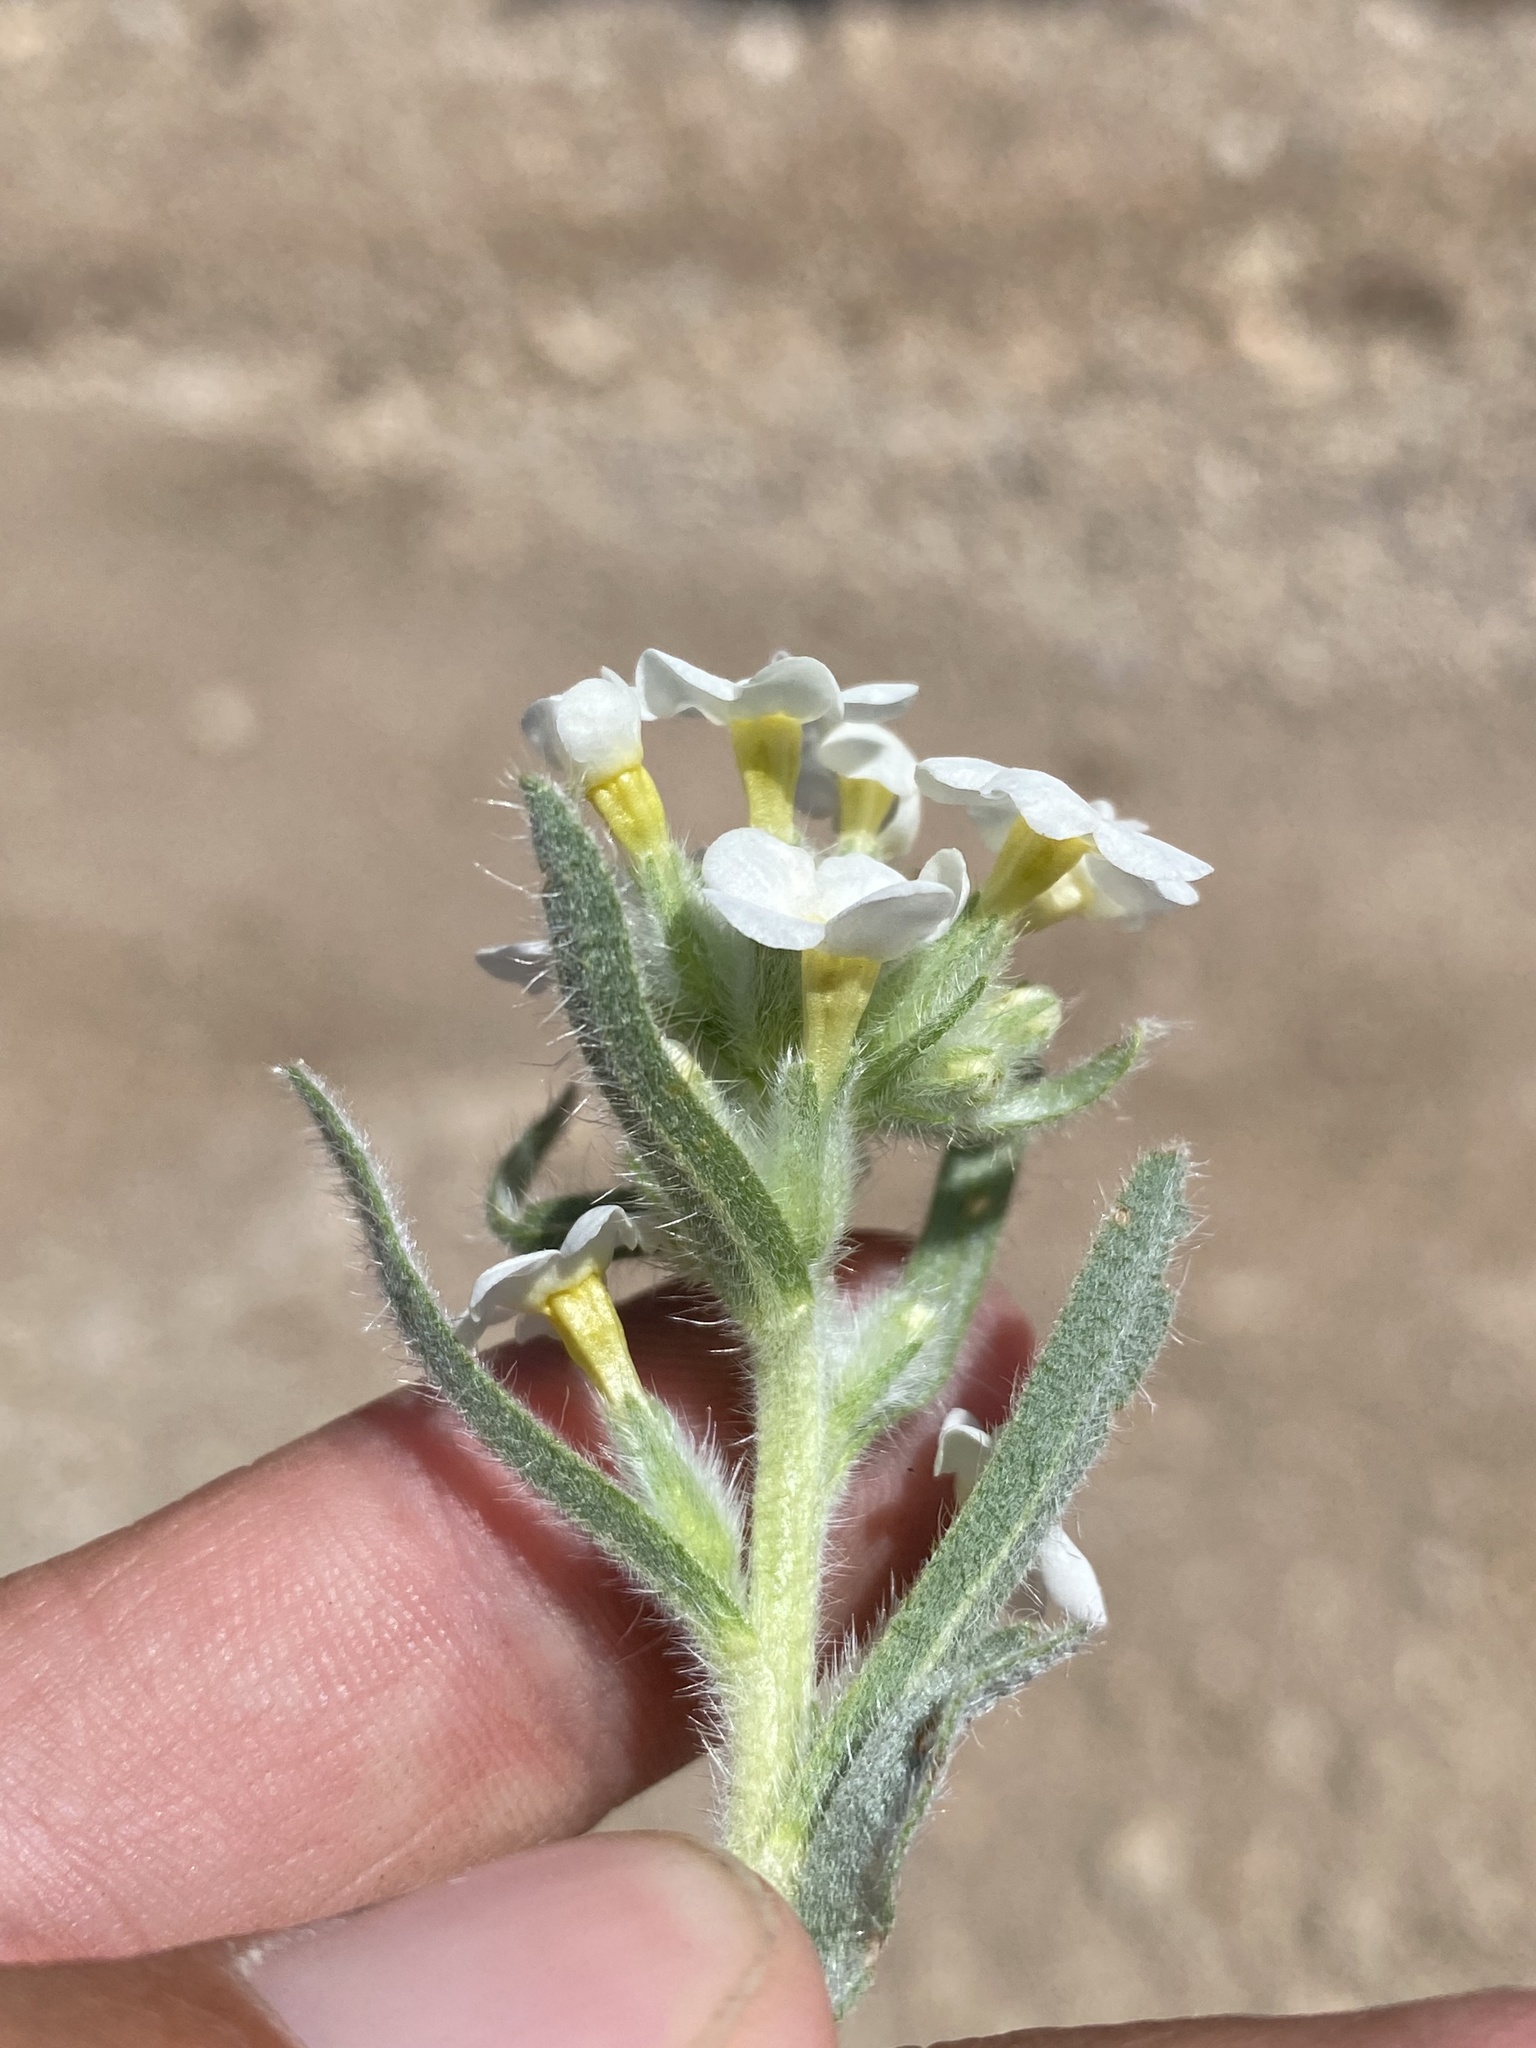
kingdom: Plantae
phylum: Tracheophyta
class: Magnoliopsida
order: Boraginales
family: Boraginaceae
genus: Oreocarya
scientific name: Oreocarya flavoculata
